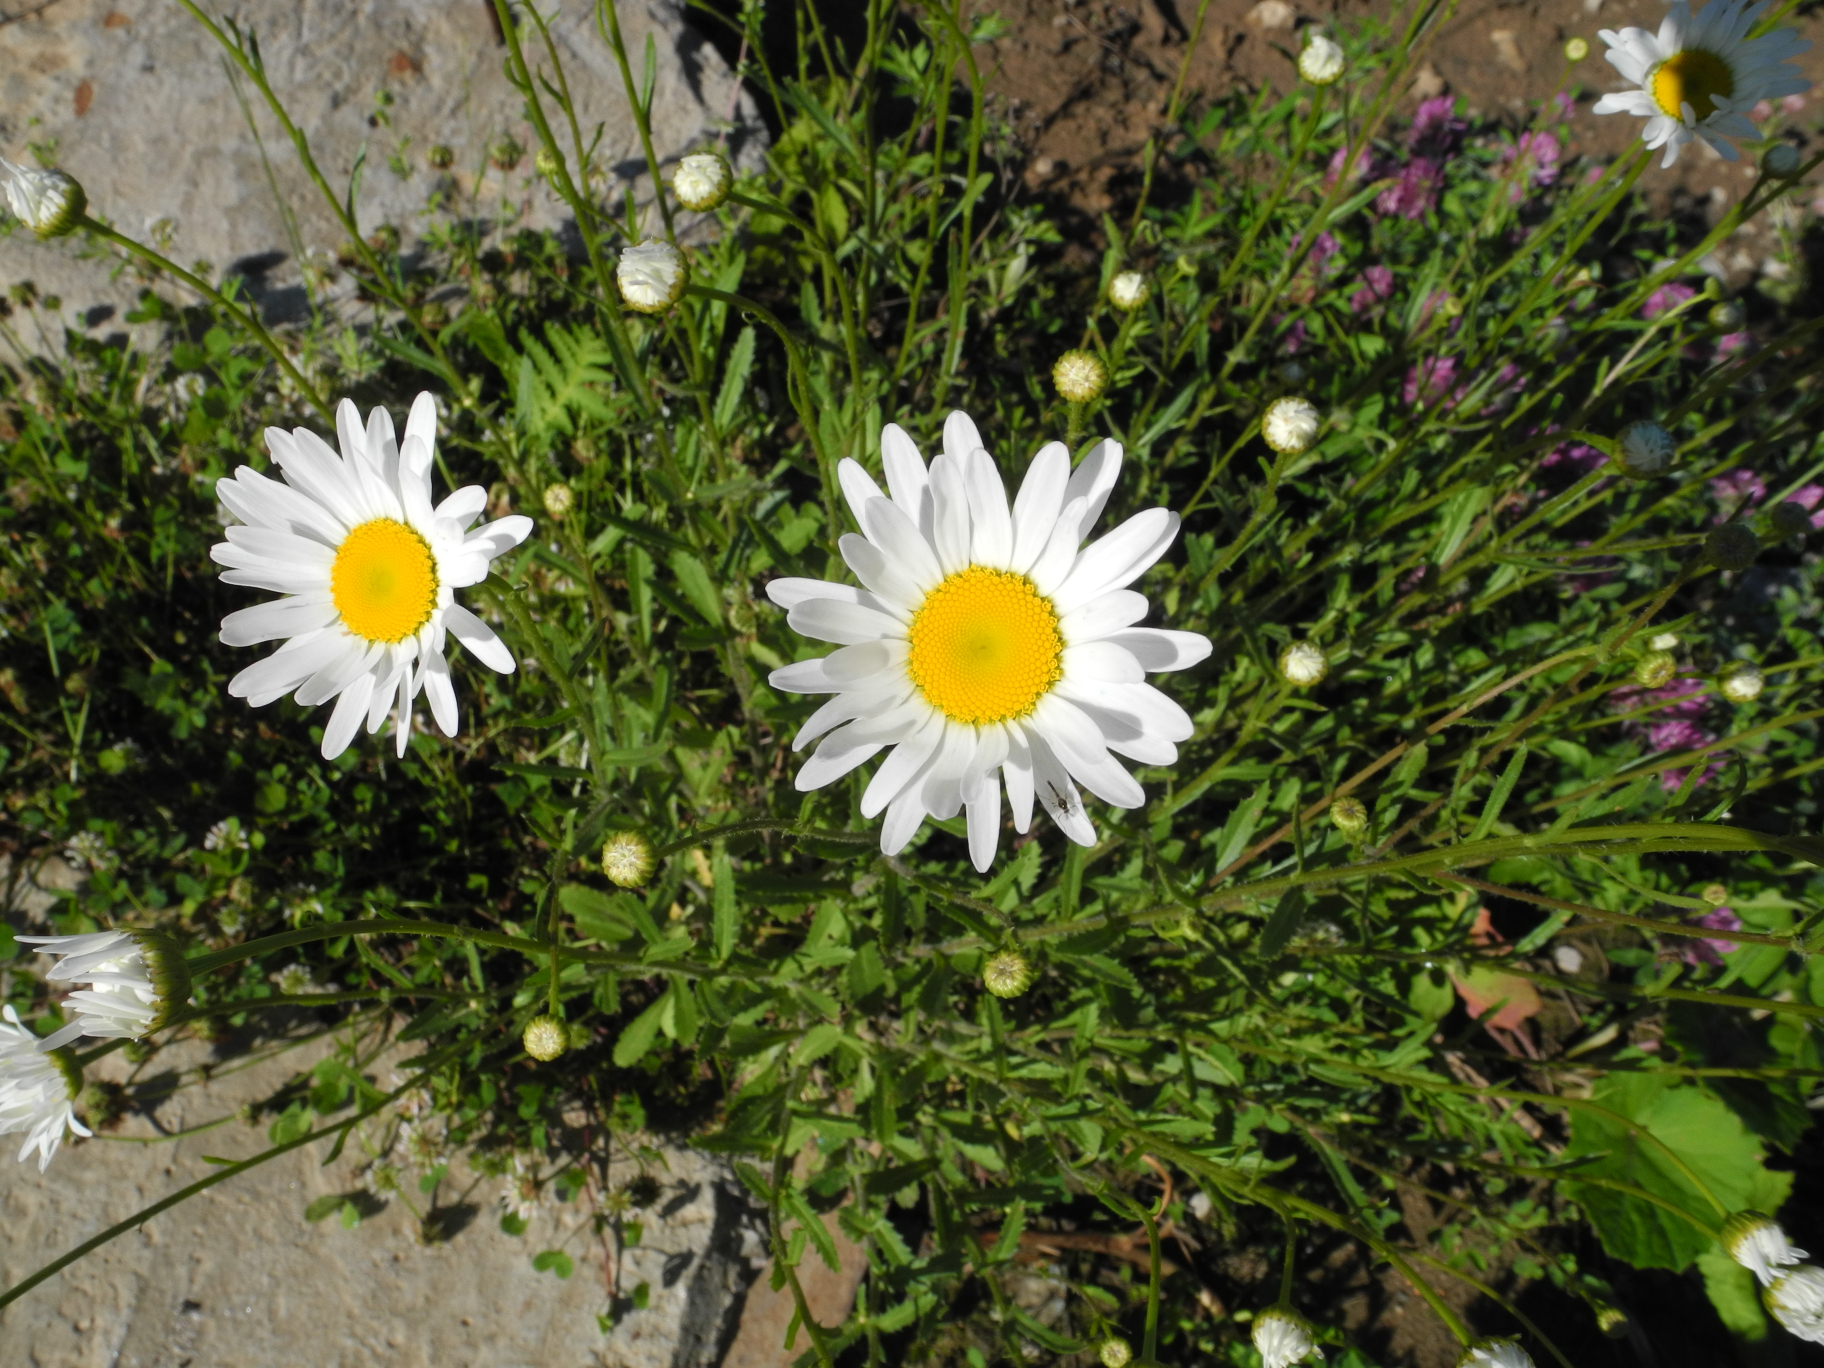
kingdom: Plantae
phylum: Tracheophyta
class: Magnoliopsida
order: Asterales
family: Asteraceae
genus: Leucanthemum
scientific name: Leucanthemum vulgare
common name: Oxeye daisy
